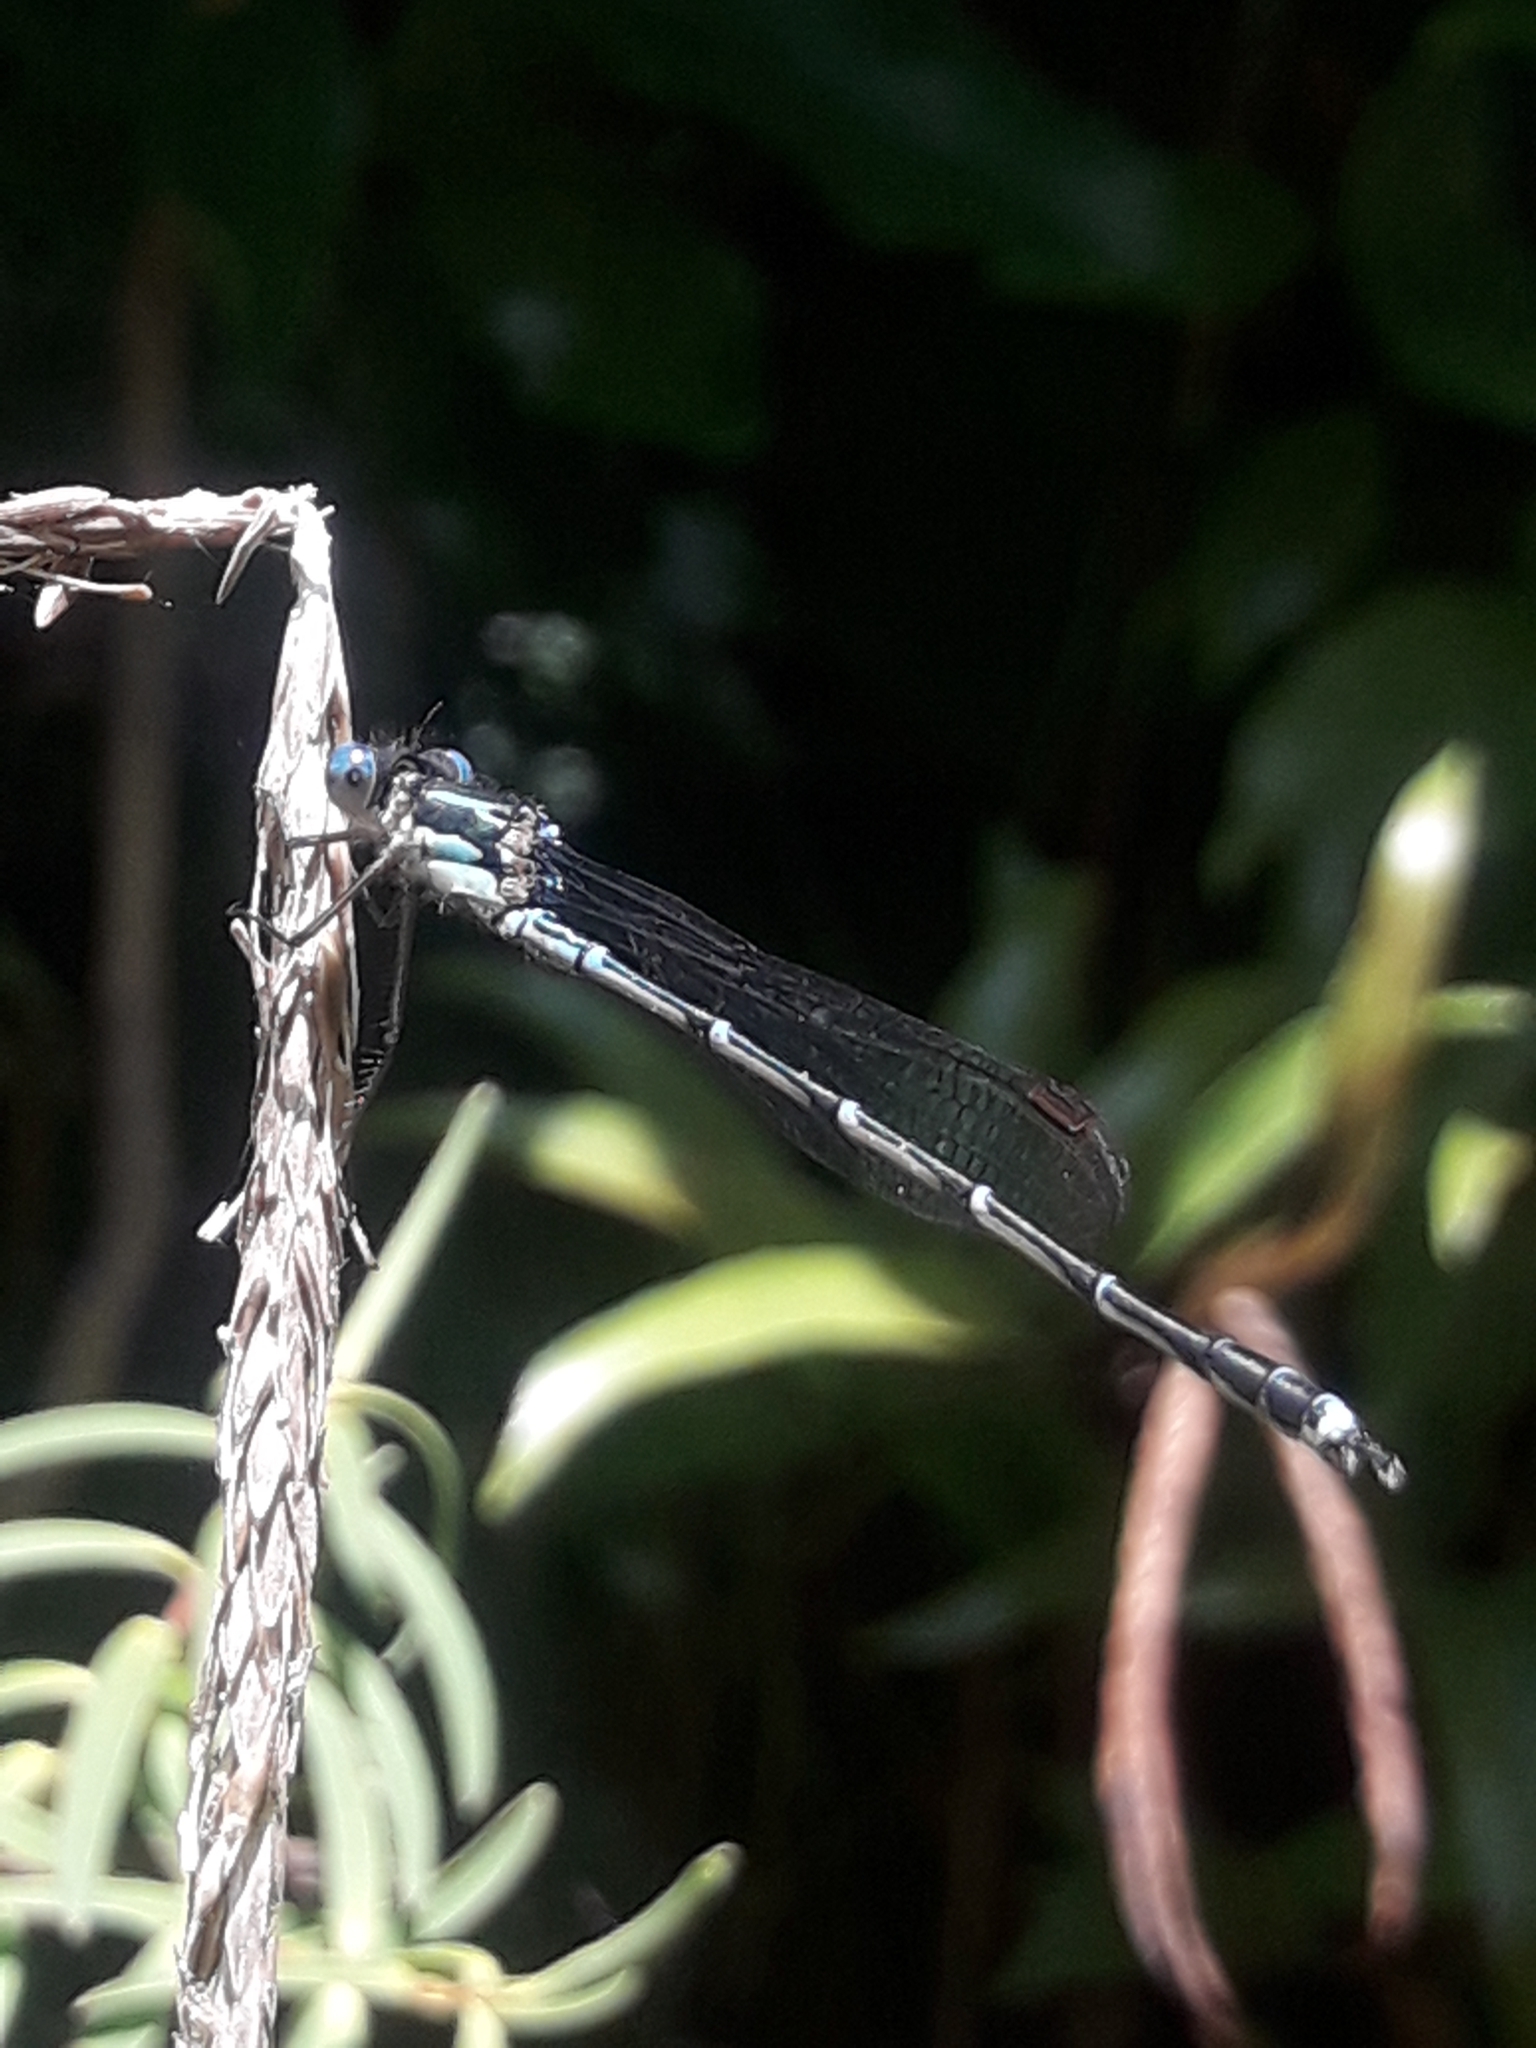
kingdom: Animalia
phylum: Arthropoda
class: Insecta
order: Odonata
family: Lestidae
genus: Austrolestes
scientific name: Austrolestes colensonis
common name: Blue damselfly
